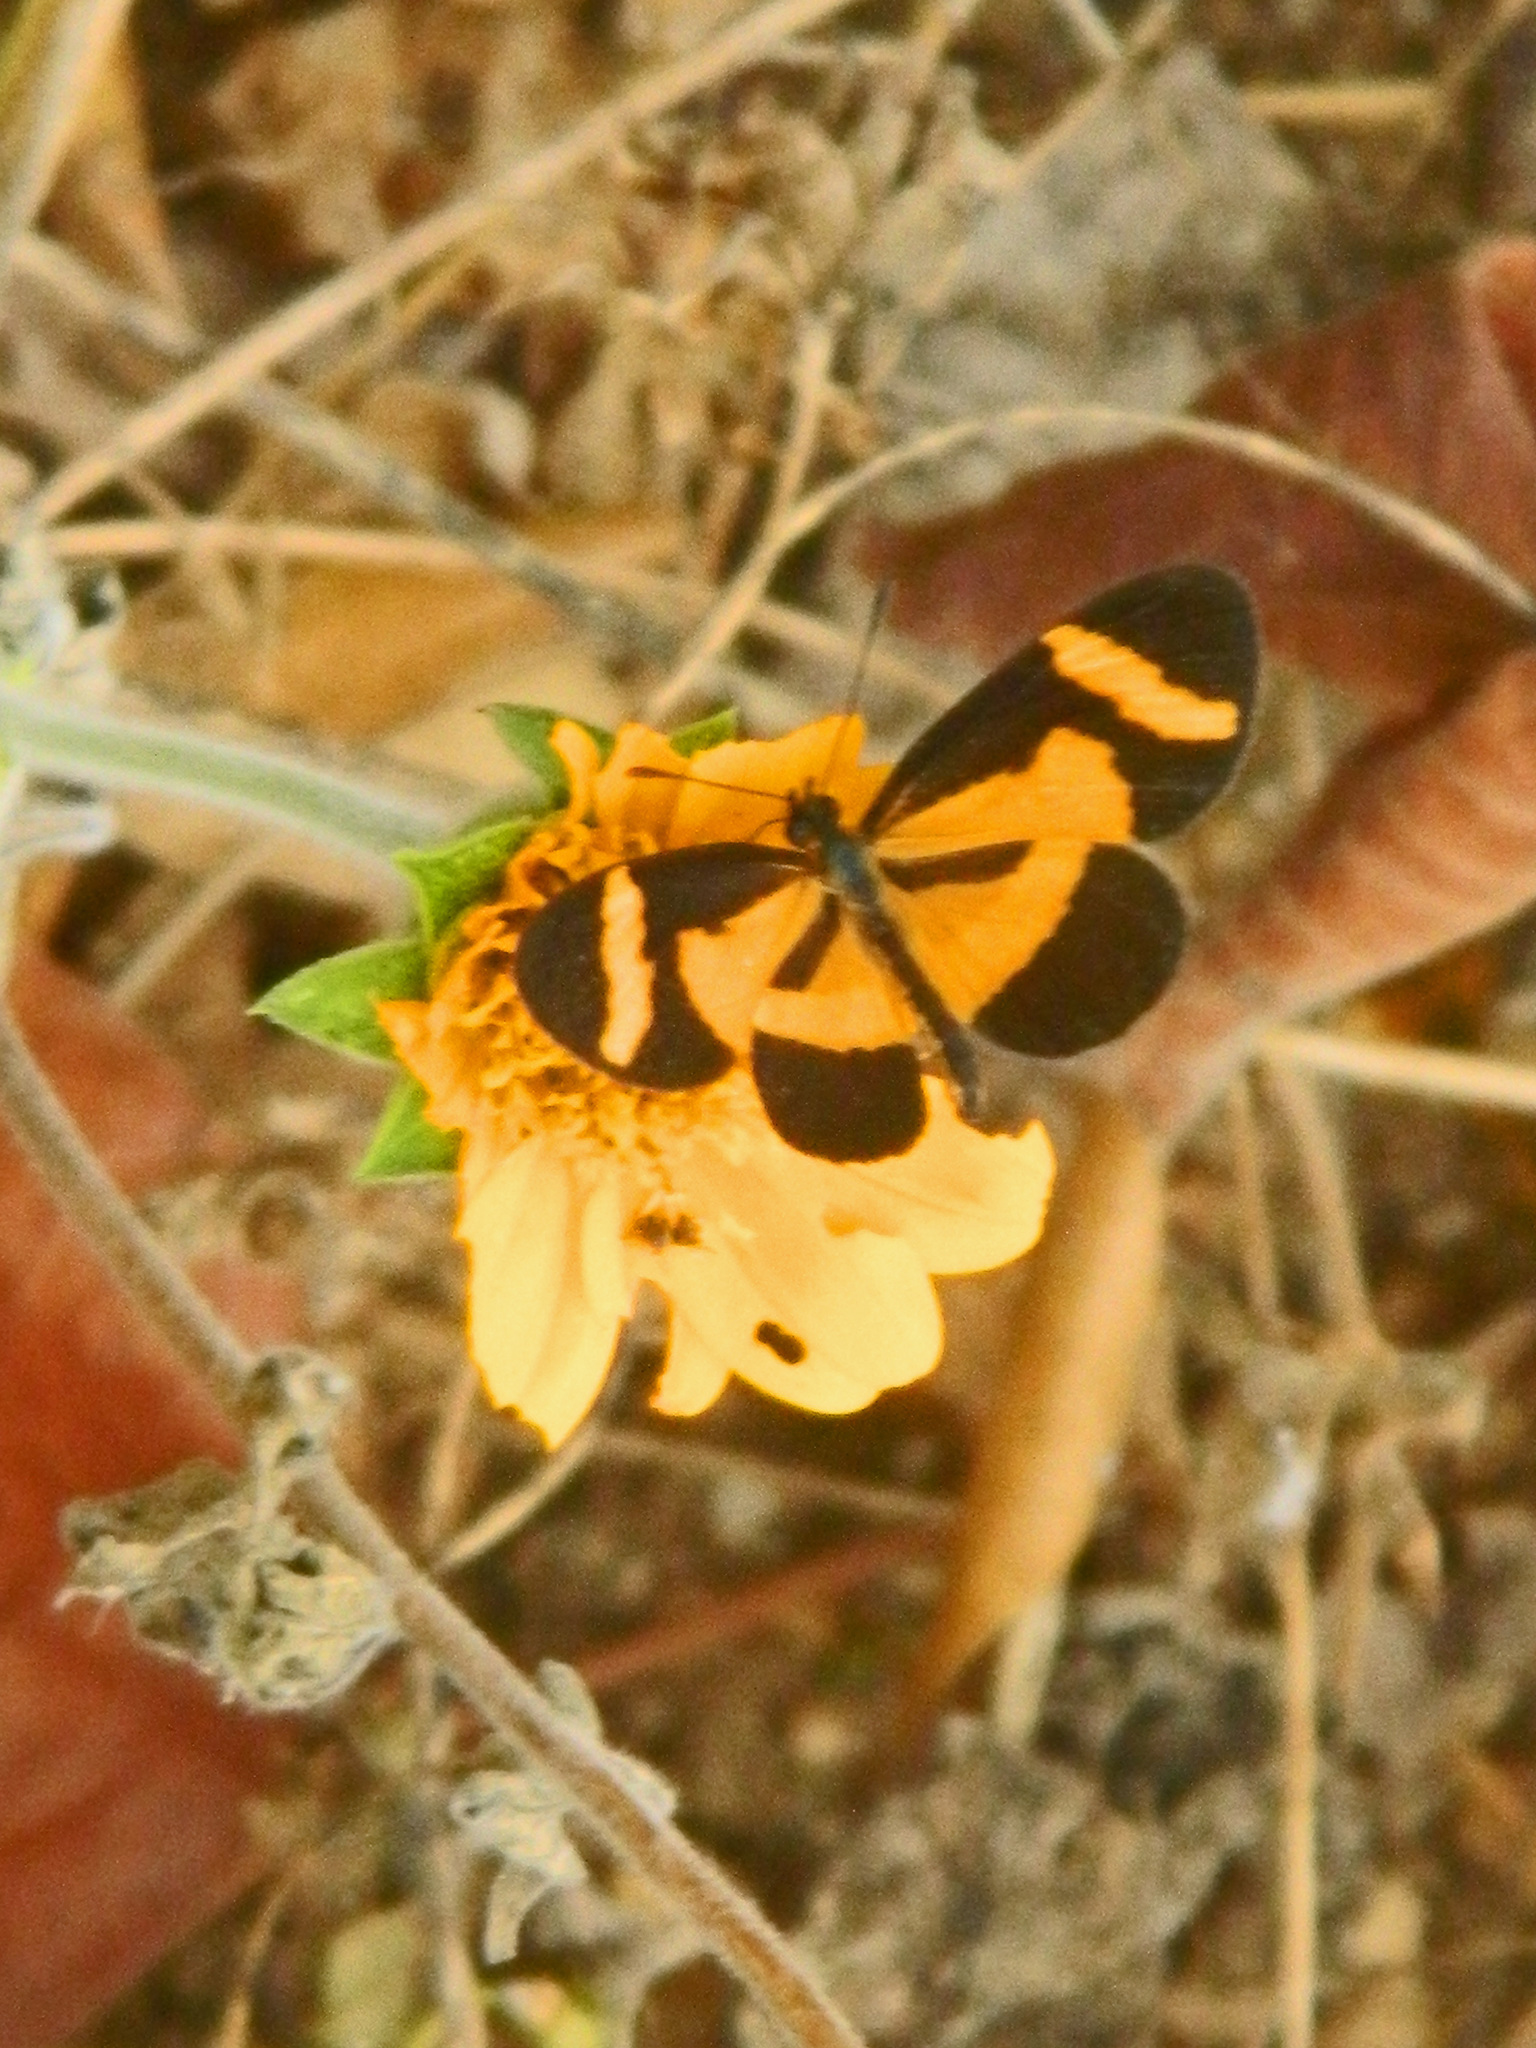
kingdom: Animalia
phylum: Arthropoda
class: Insecta
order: Lepidoptera
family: Nymphalidae
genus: Microtia
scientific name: Microtia elva
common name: Elf
